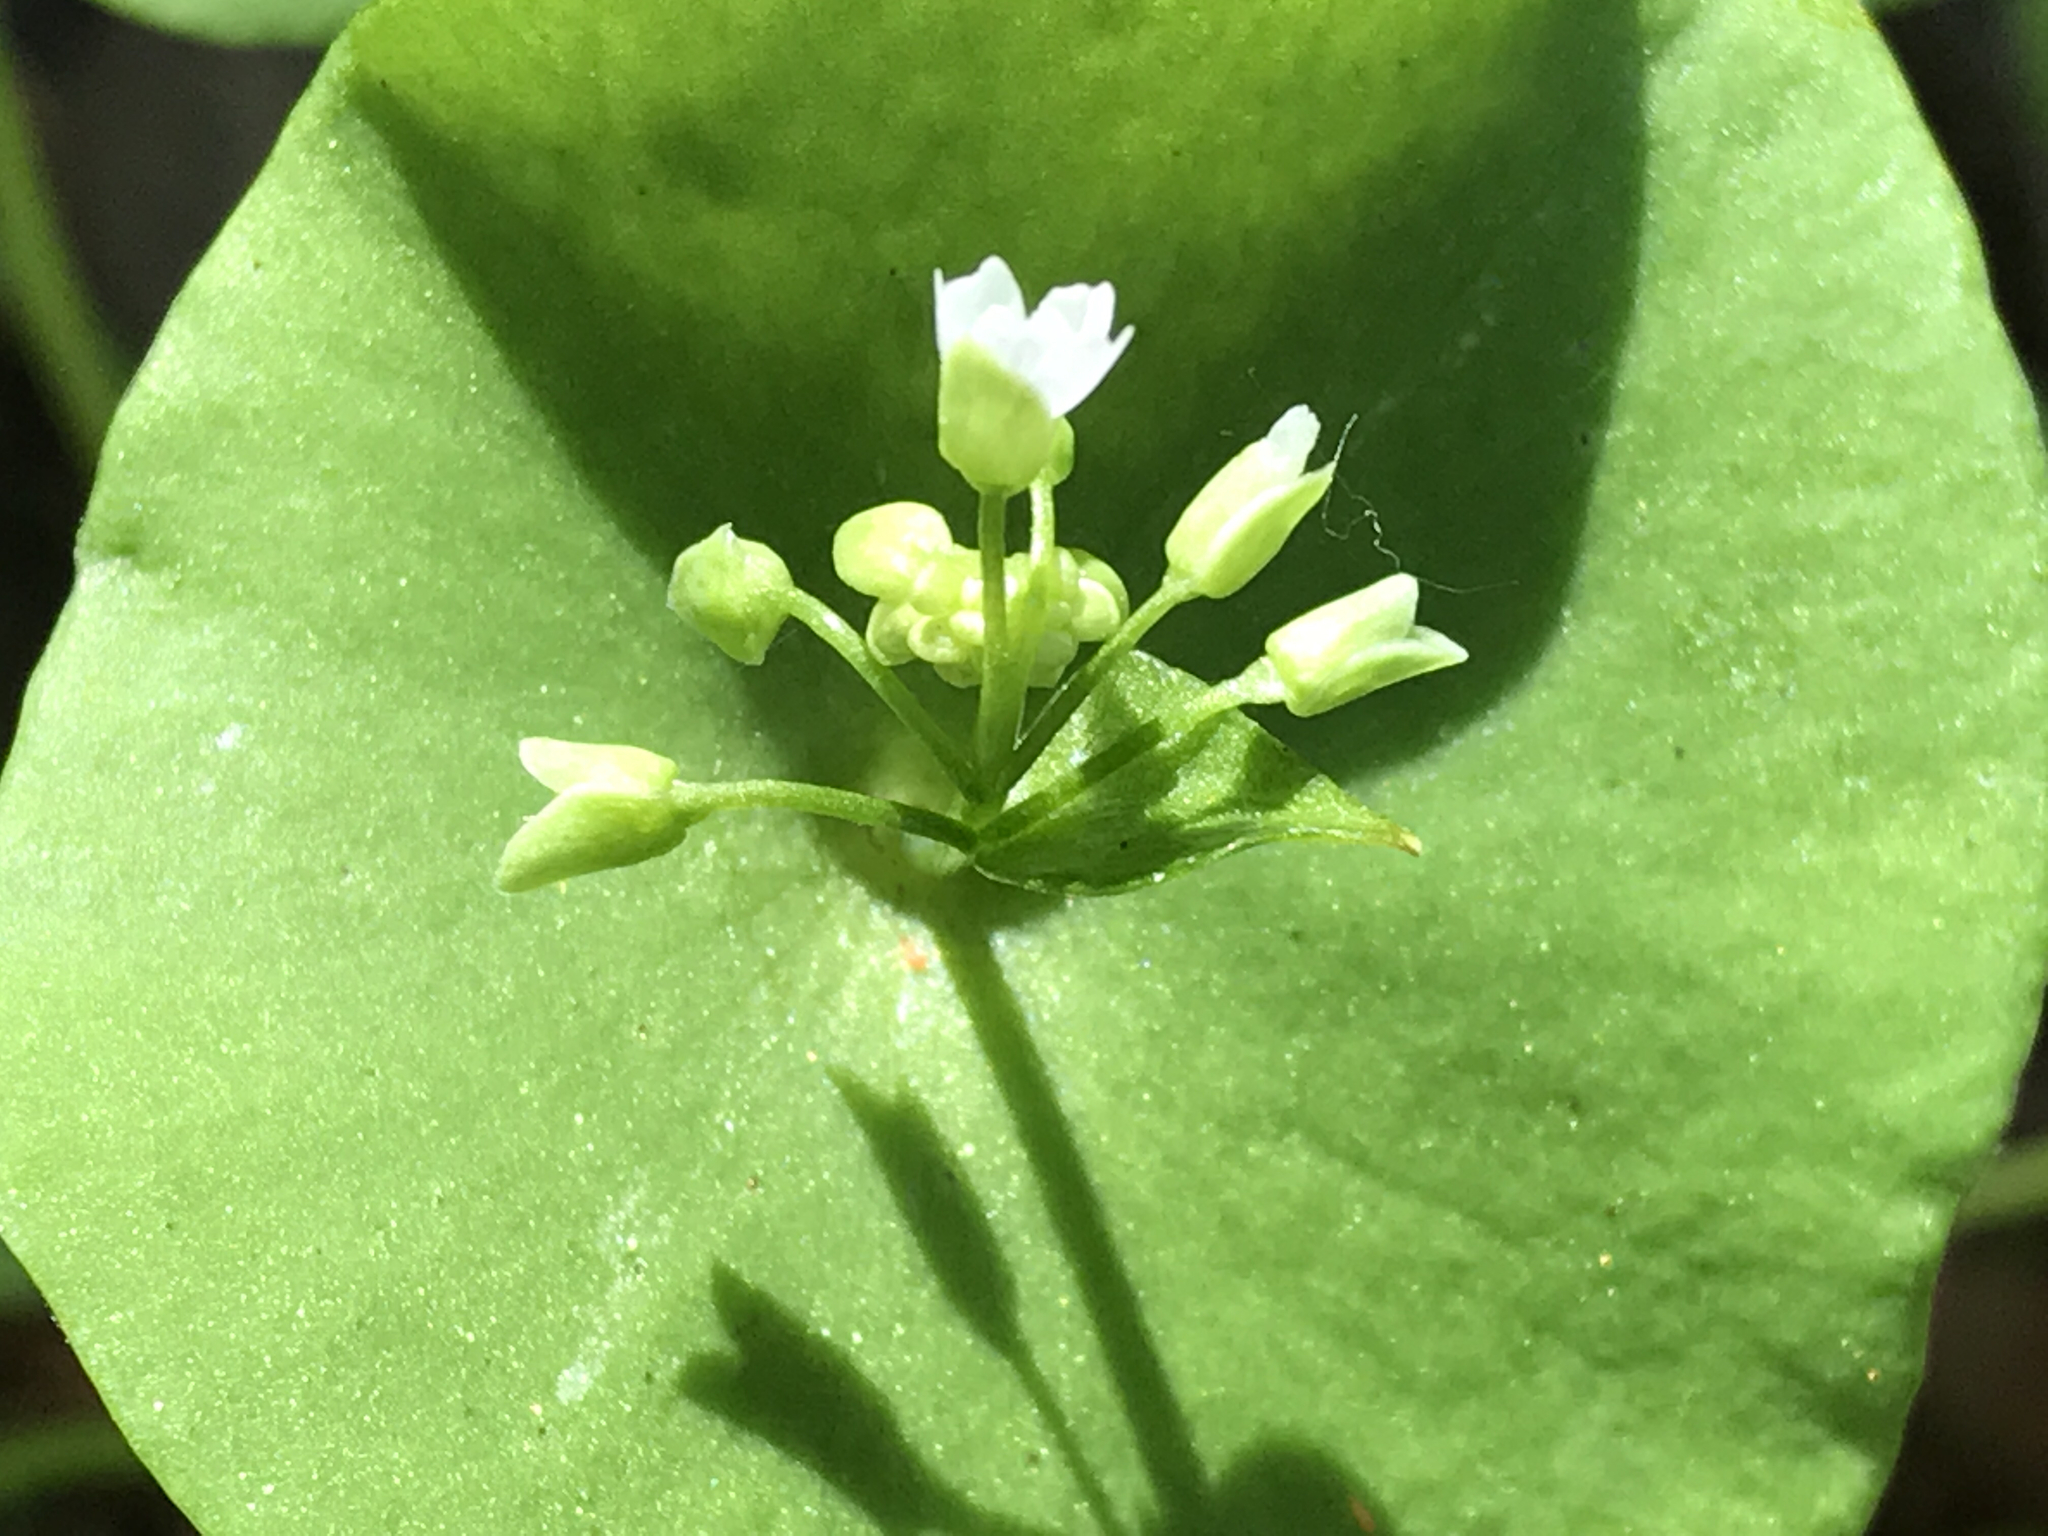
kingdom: Plantae
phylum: Tracheophyta
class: Magnoliopsida
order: Caryophyllales
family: Montiaceae
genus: Claytonia
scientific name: Claytonia perfoliata
